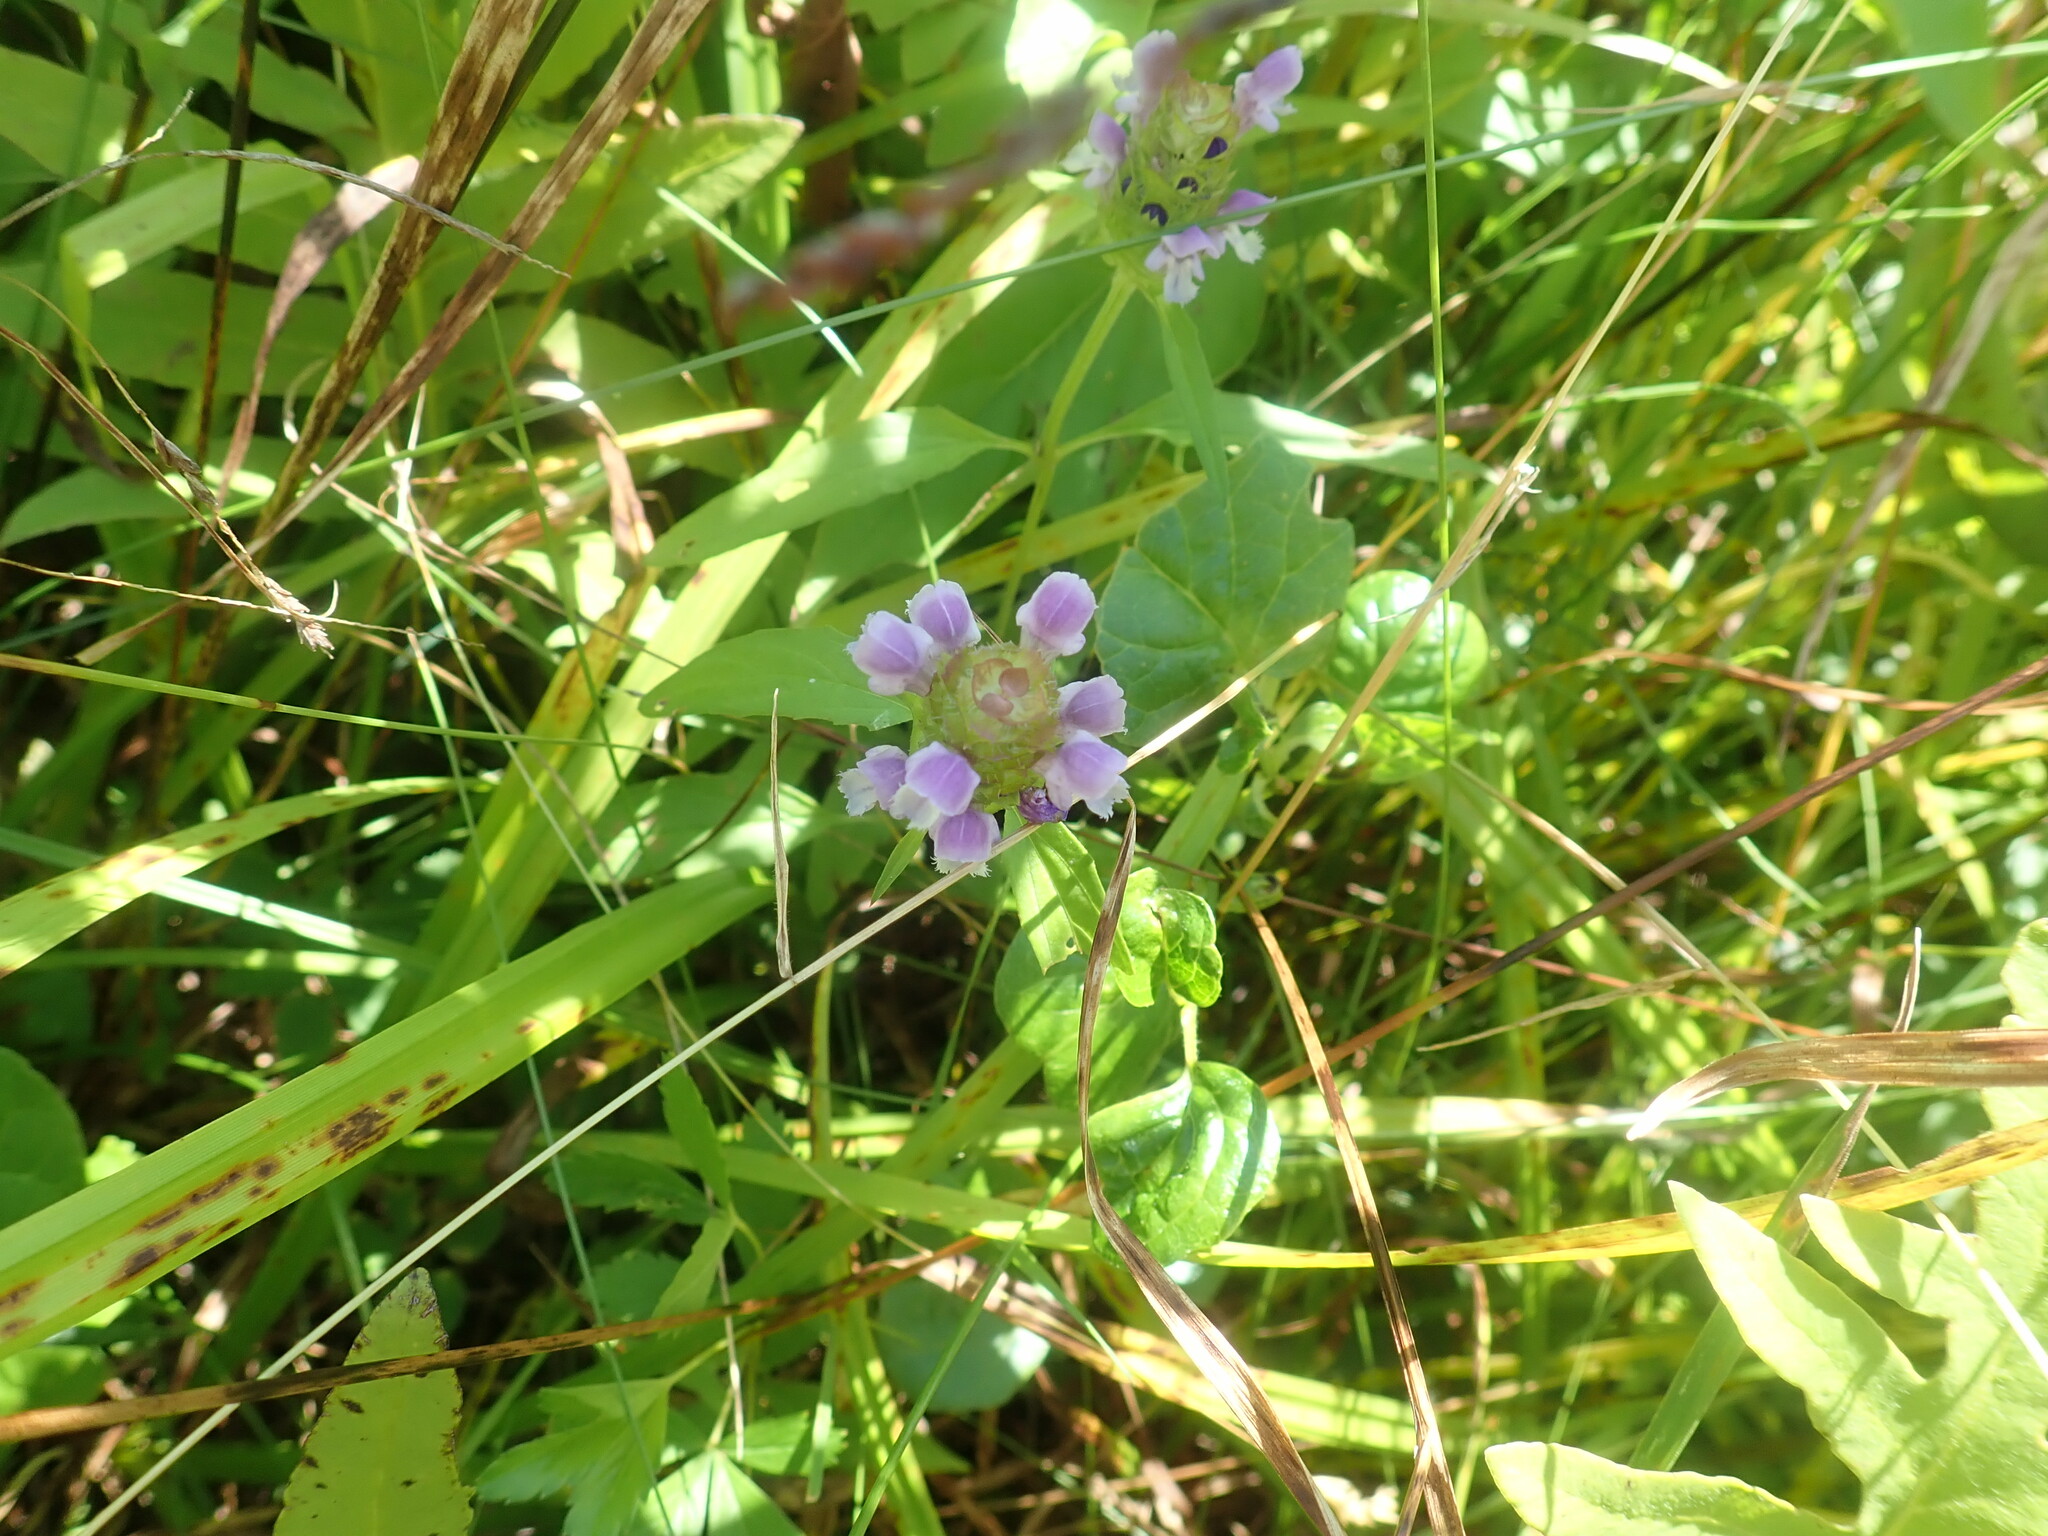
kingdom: Plantae
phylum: Tracheophyta
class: Magnoliopsida
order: Lamiales
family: Lamiaceae
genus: Prunella
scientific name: Prunella vulgaris
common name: Heal-all
